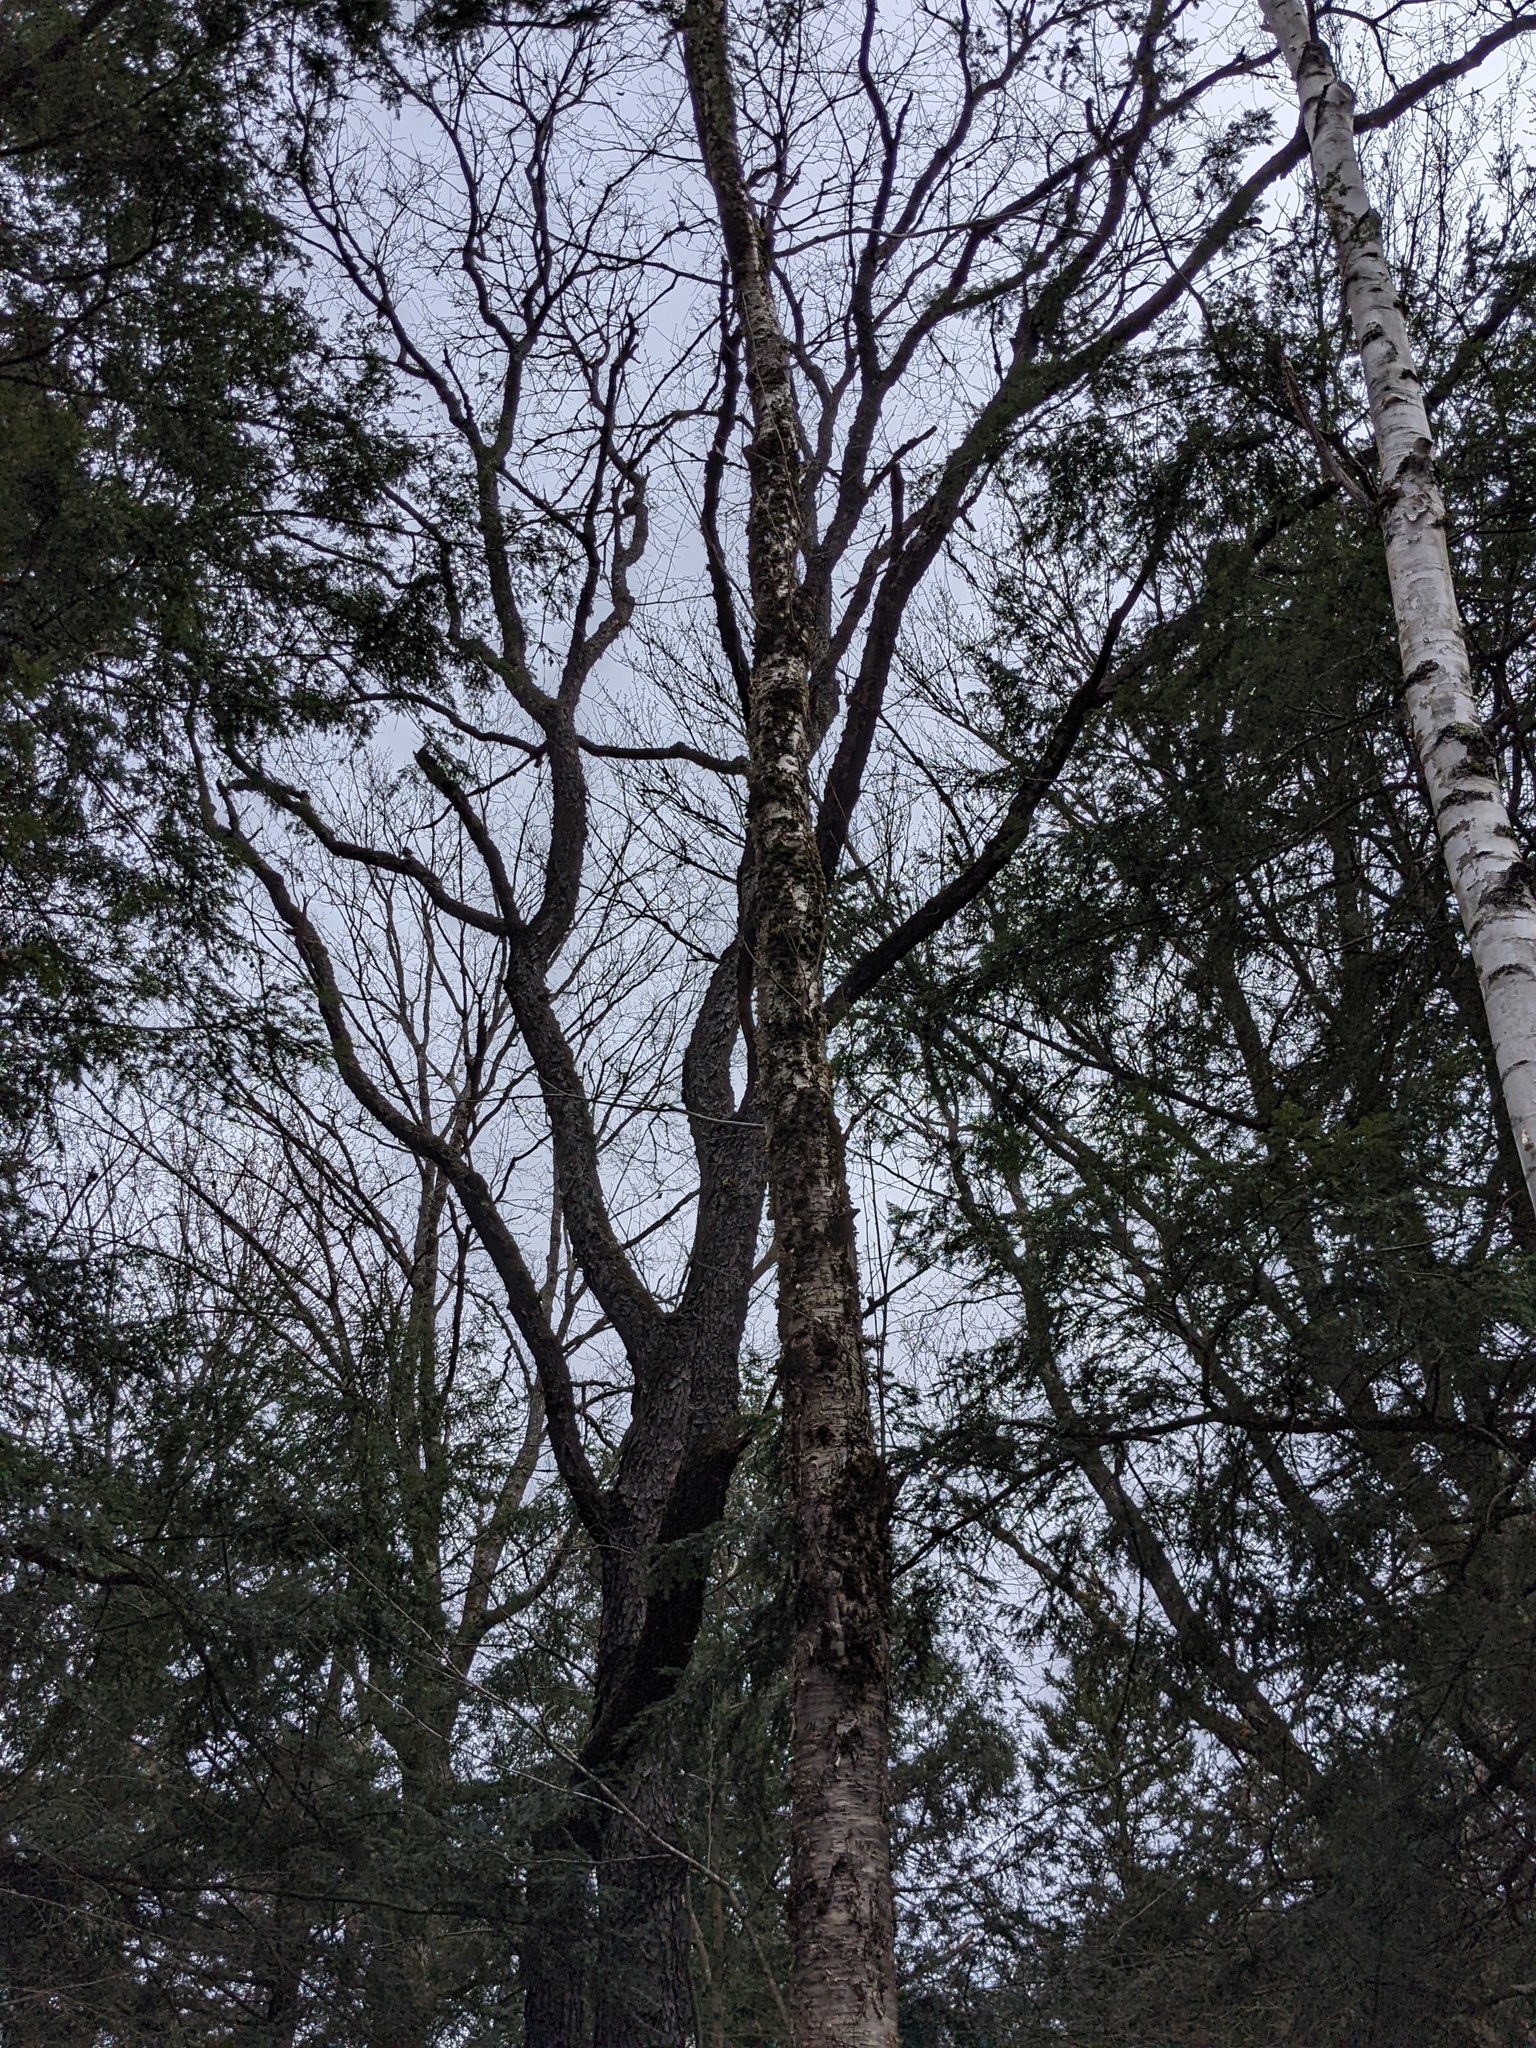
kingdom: Plantae
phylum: Tracheophyta
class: Magnoliopsida
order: Fagales
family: Betulaceae
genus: Betula
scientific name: Betula alleghaniensis
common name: Yellow birch
